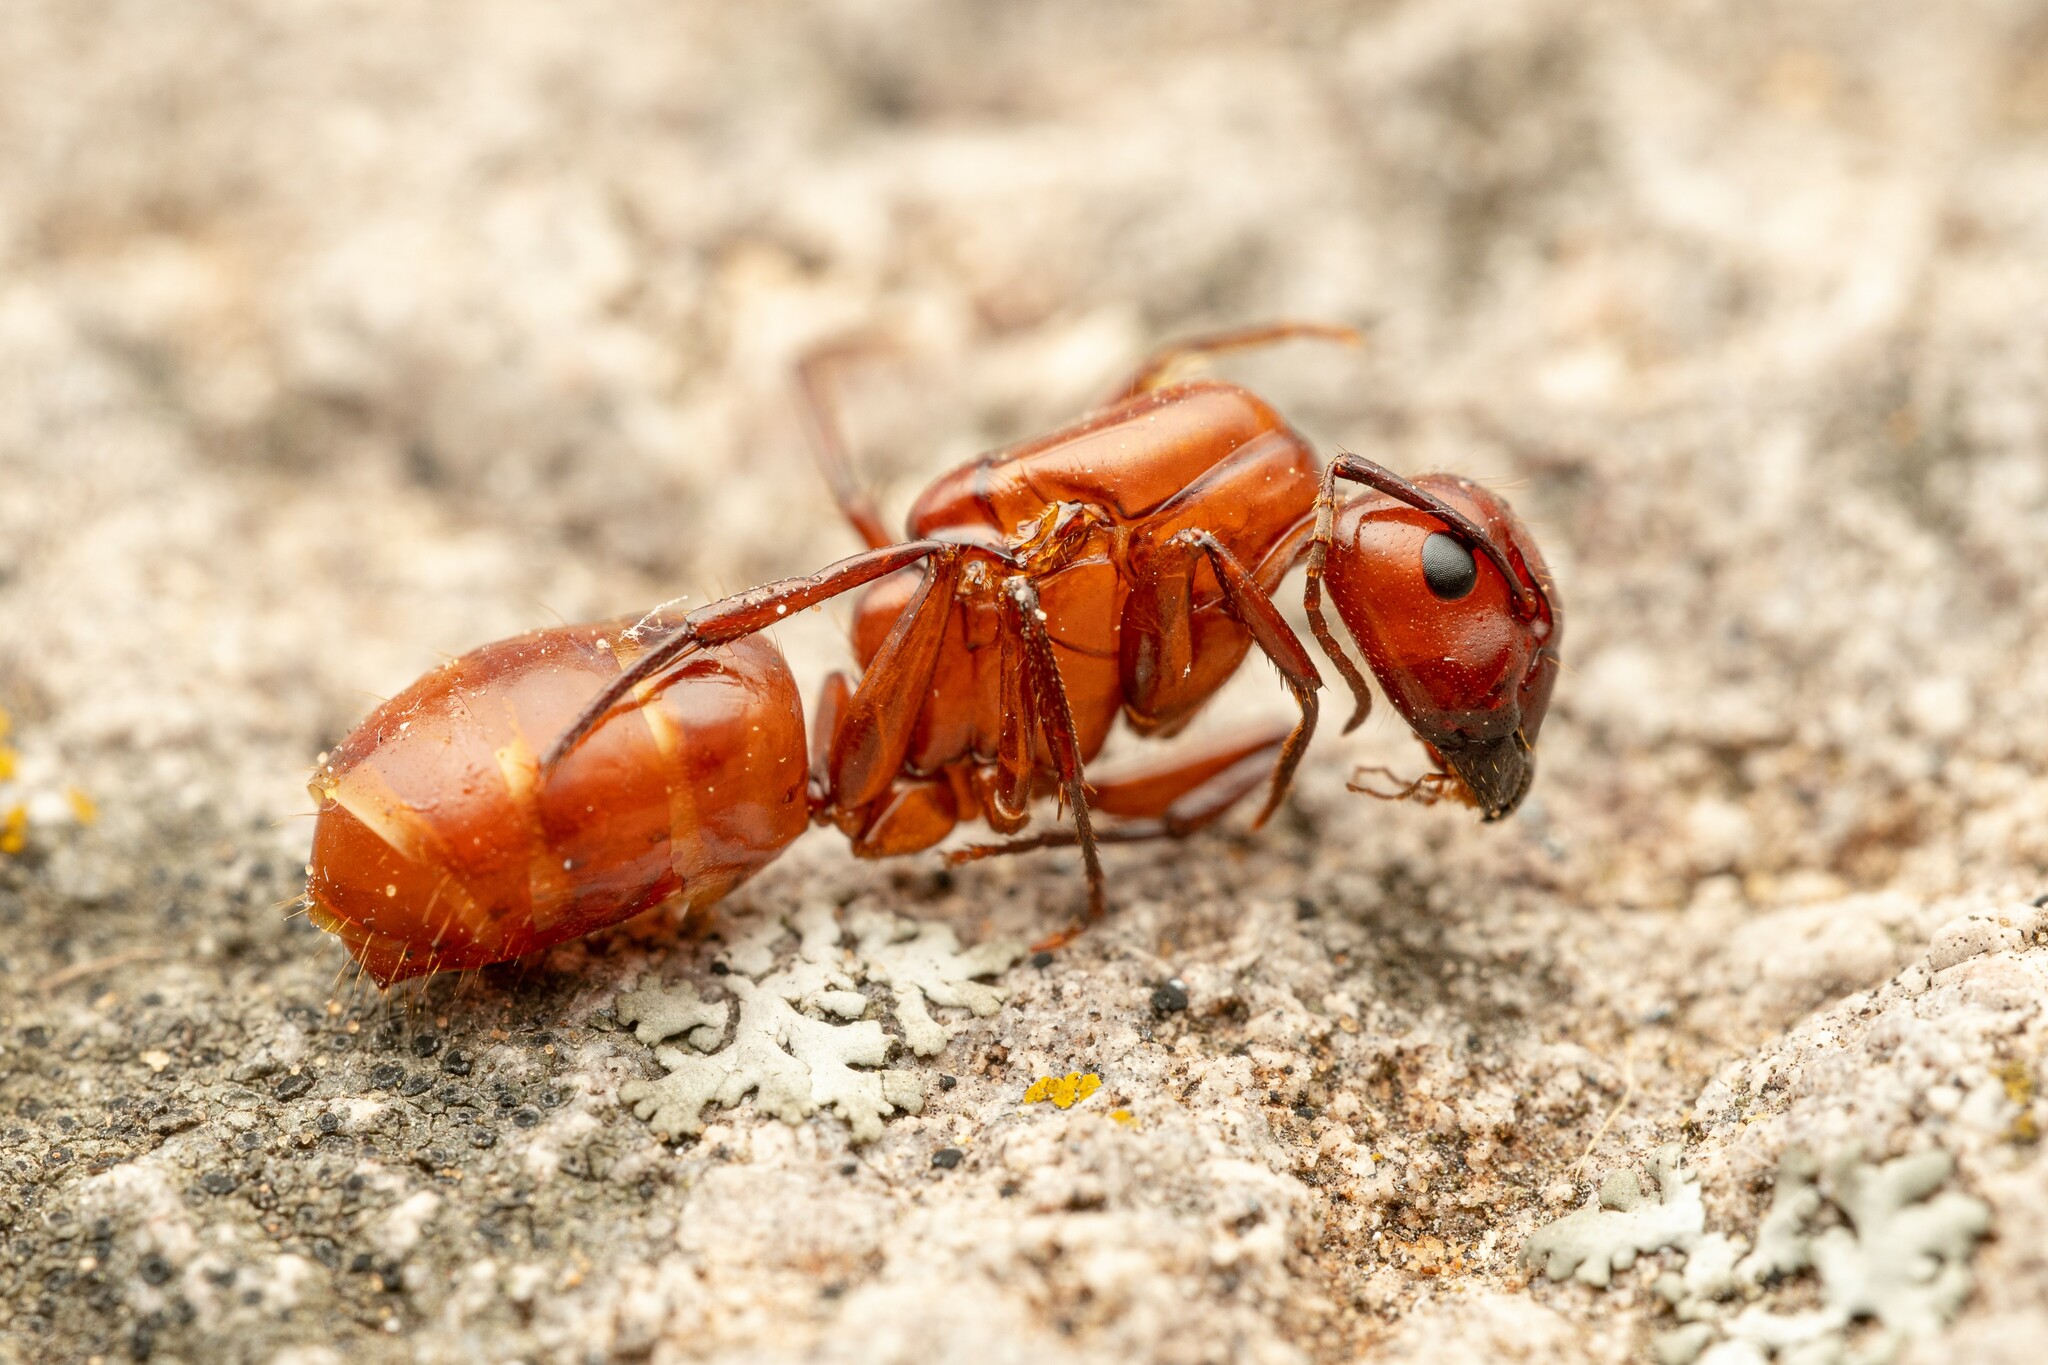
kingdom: Animalia
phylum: Arthropoda
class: Insecta
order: Hymenoptera
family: Formicidae
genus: Camponotus
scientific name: Camponotus schaefferi
